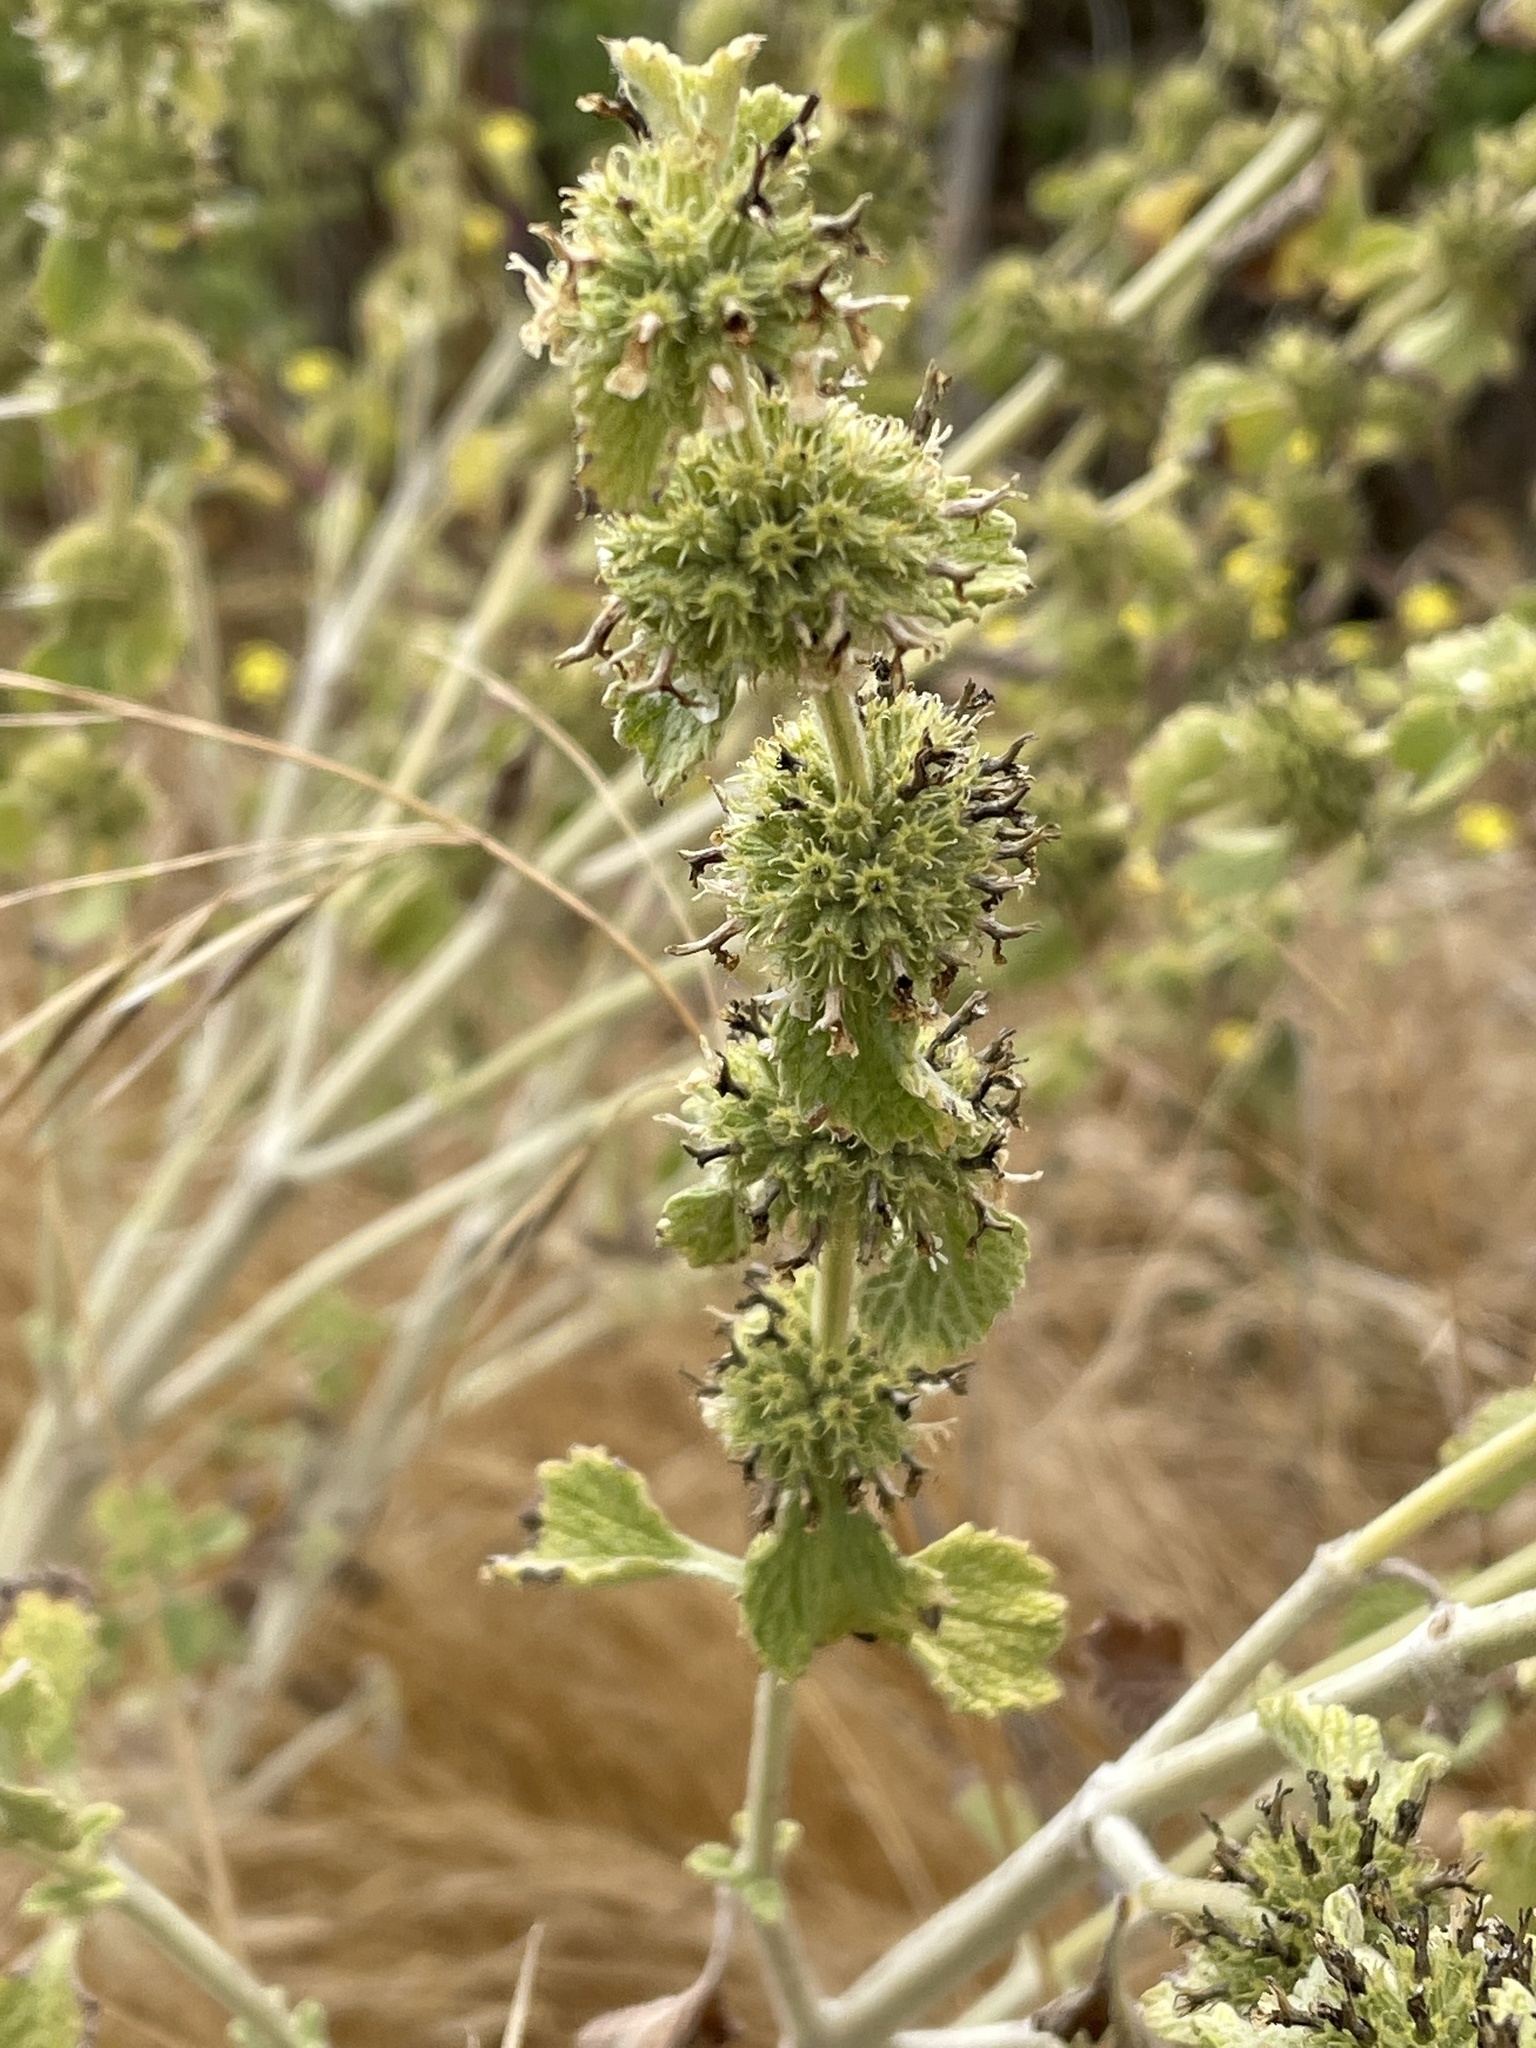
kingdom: Plantae
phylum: Tracheophyta
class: Magnoliopsida
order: Lamiales
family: Lamiaceae
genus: Marrubium
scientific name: Marrubium vulgare
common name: Horehound
